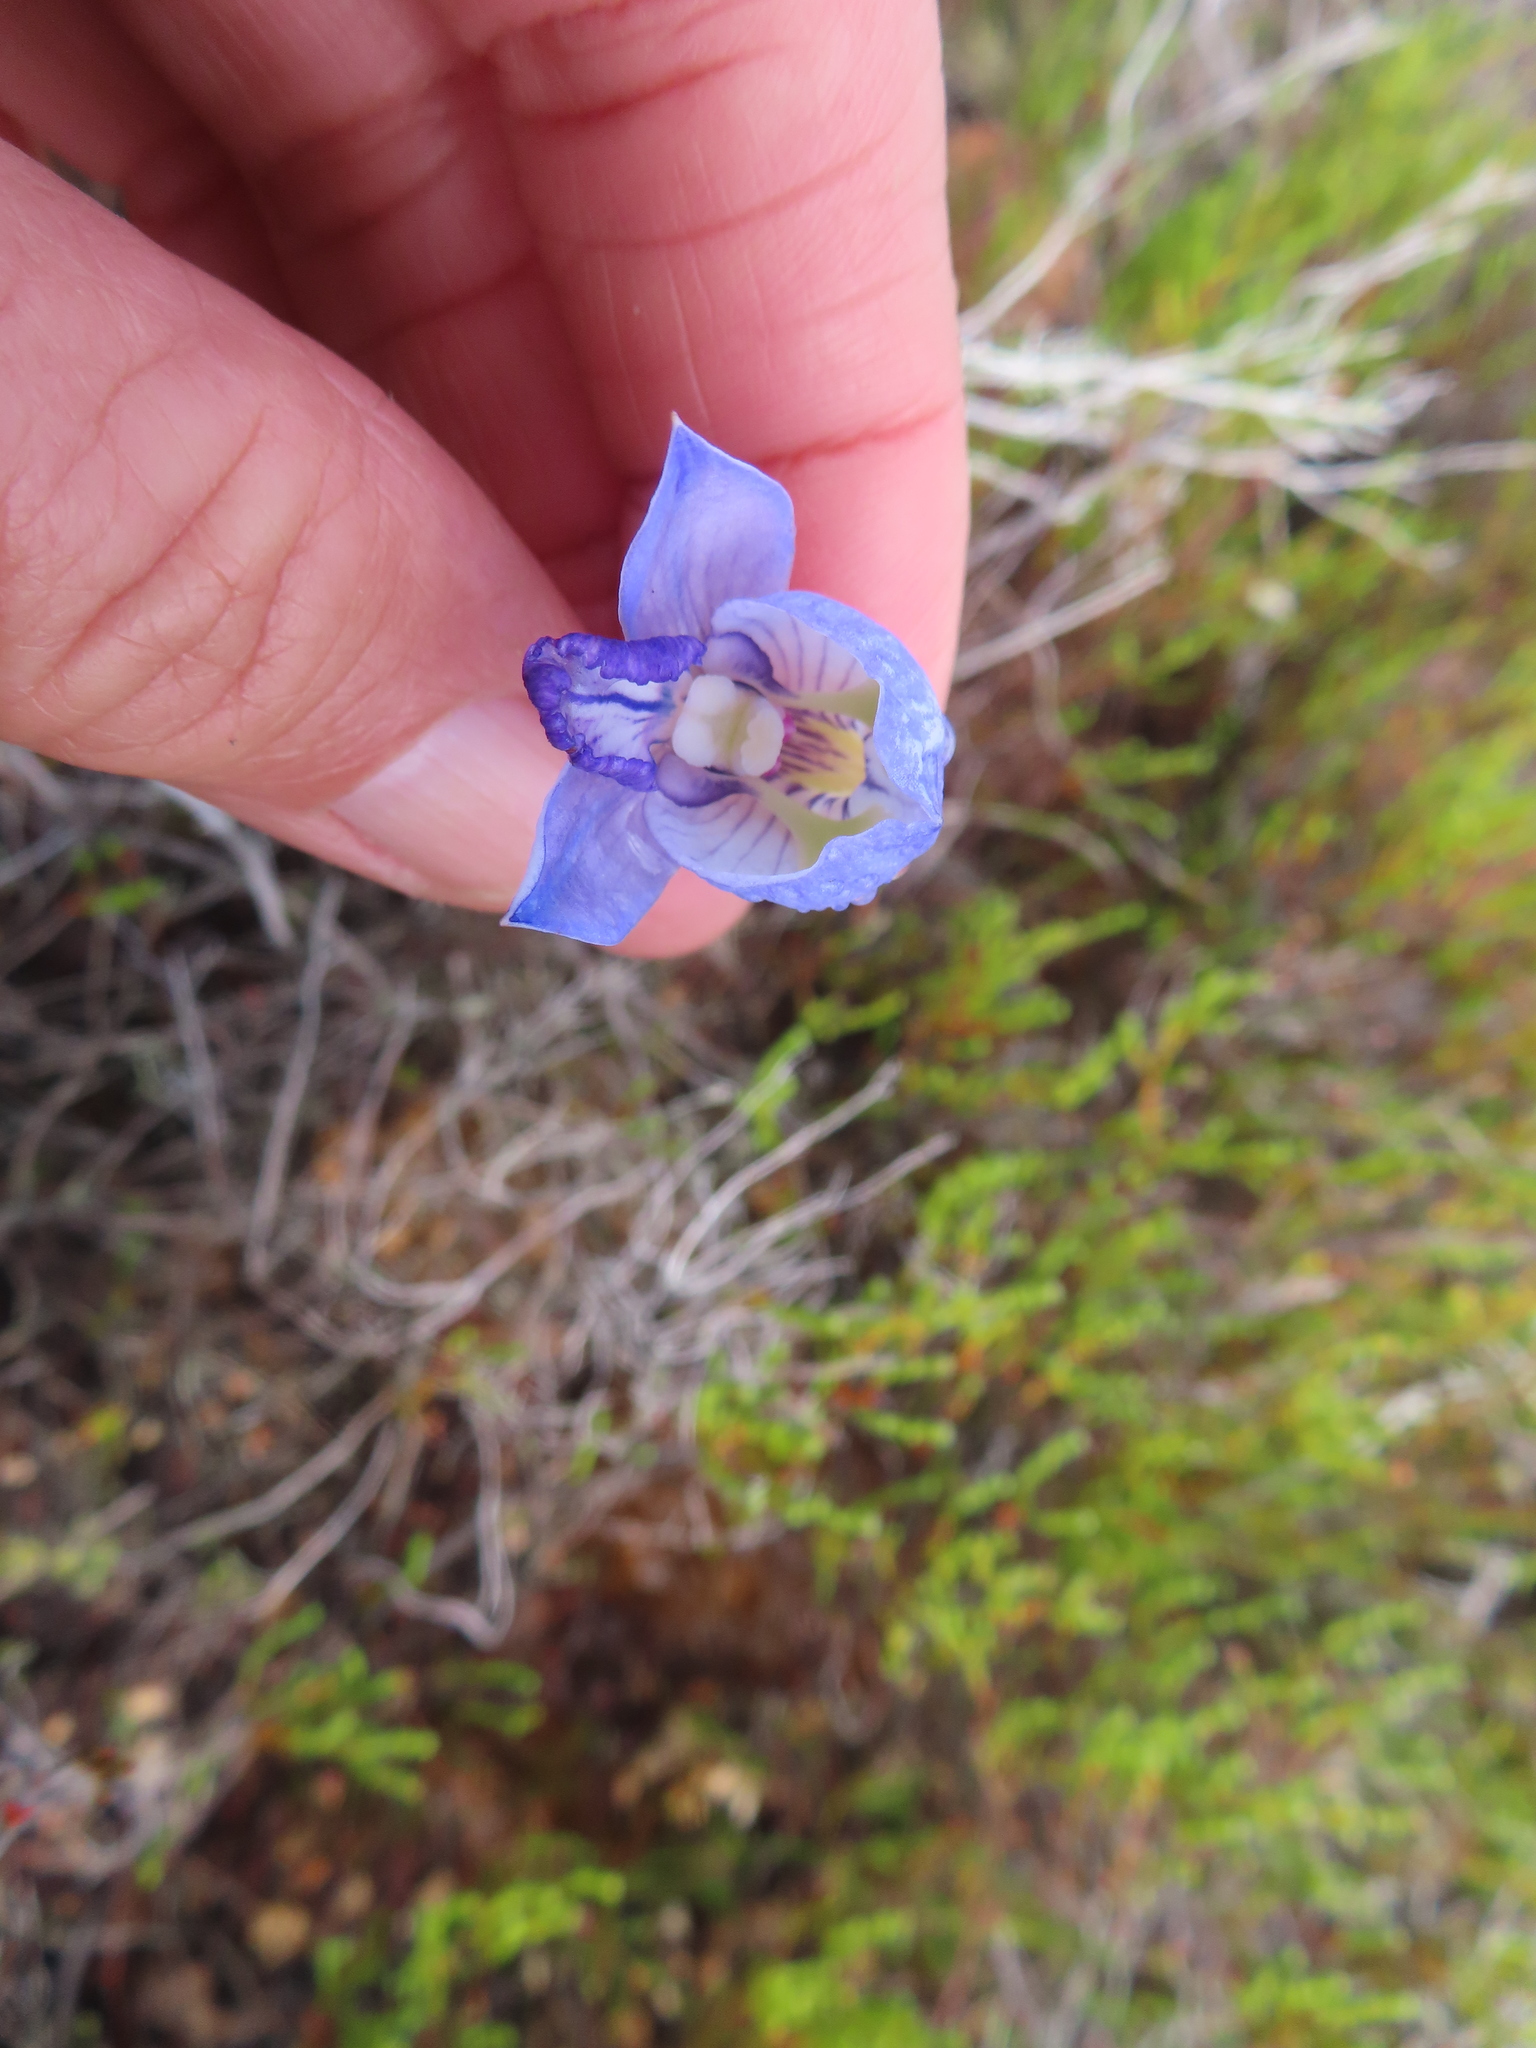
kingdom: Plantae
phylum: Tracheophyta
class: Liliopsida
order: Asparagales
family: Orchidaceae
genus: Disa
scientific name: Disa purpurascens
